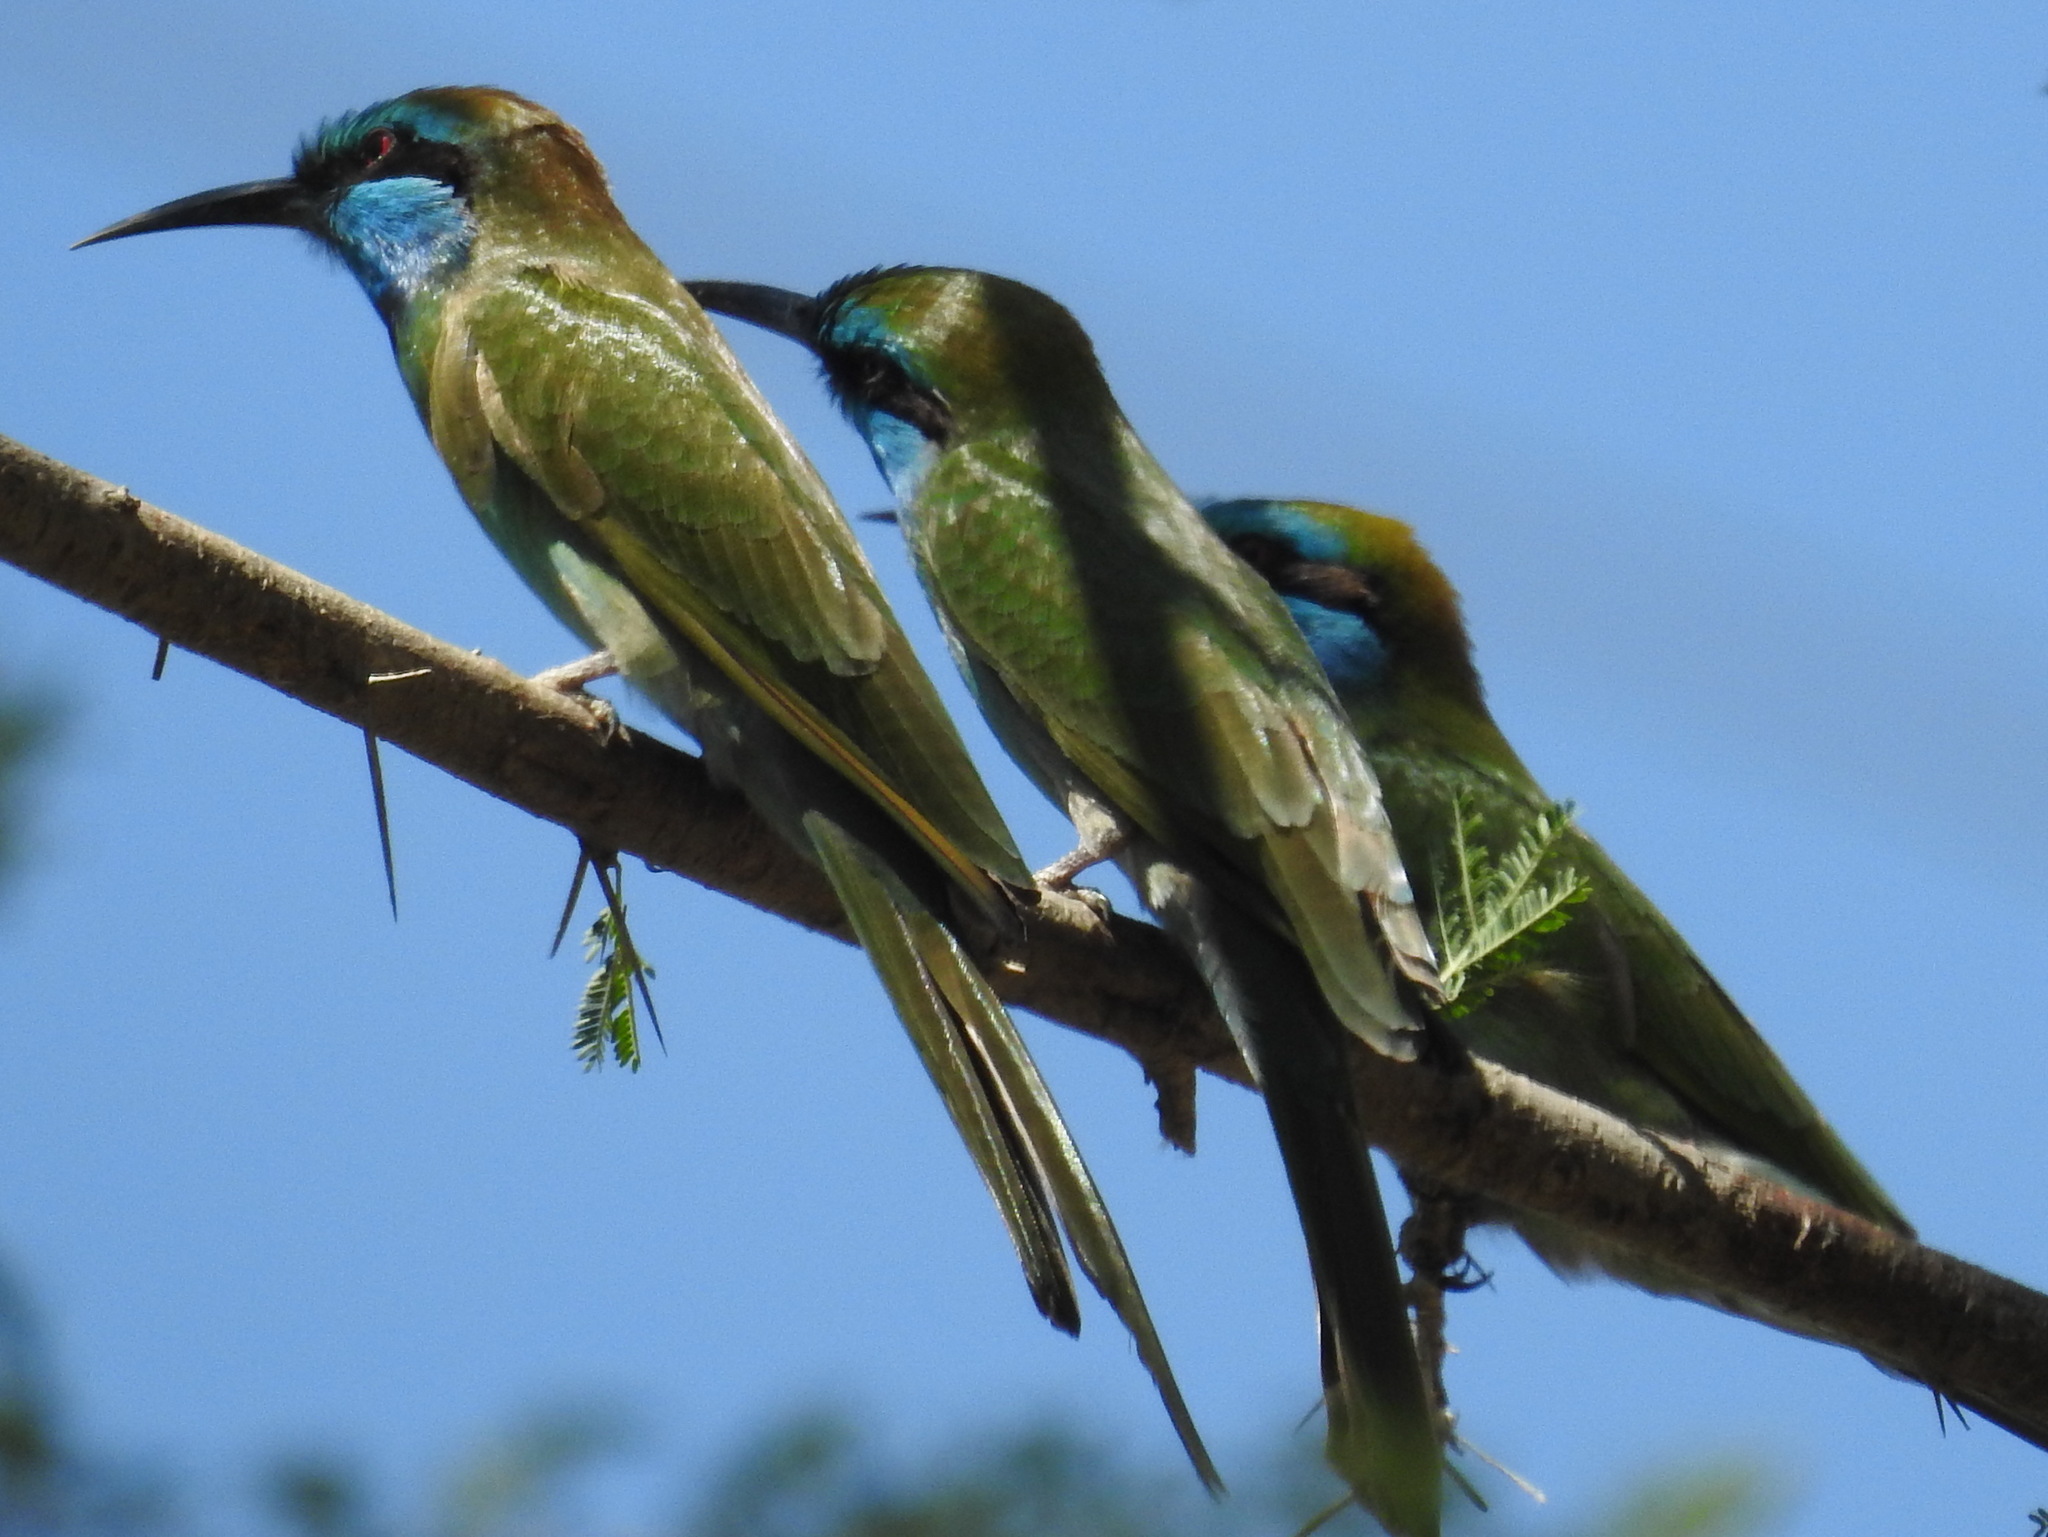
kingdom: Animalia
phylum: Chordata
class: Aves
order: Coraciiformes
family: Meropidae
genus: Merops
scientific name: Merops cyanophrys
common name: Arabian green bee-eater
